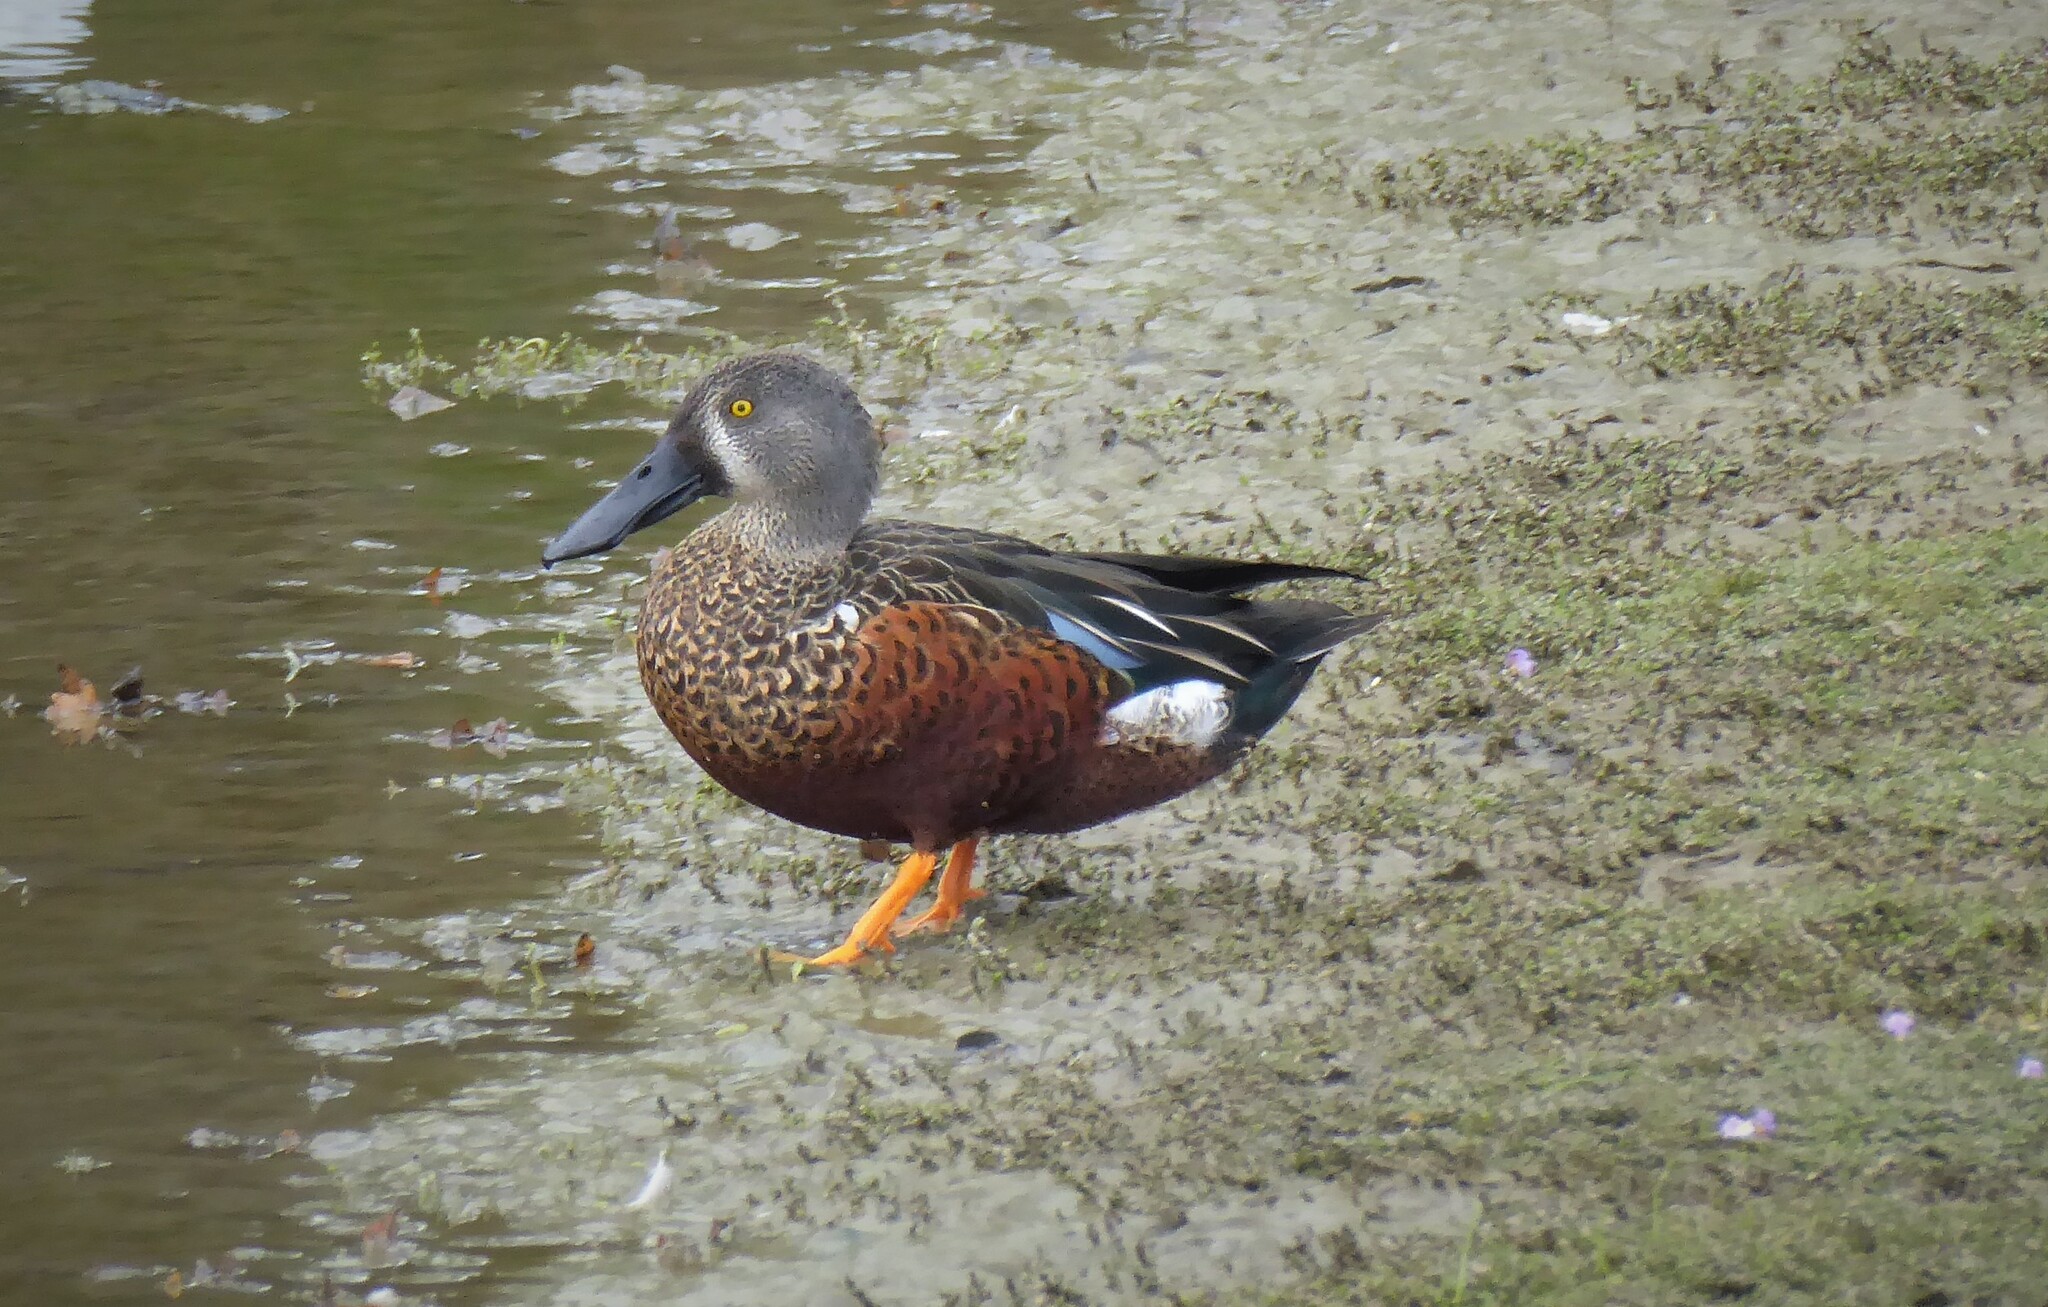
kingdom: Animalia
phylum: Chordata
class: Aves
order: Anseriformes
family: Anatidae
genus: Spatula
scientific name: Spatula rhynchotis
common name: Australian shoveler
